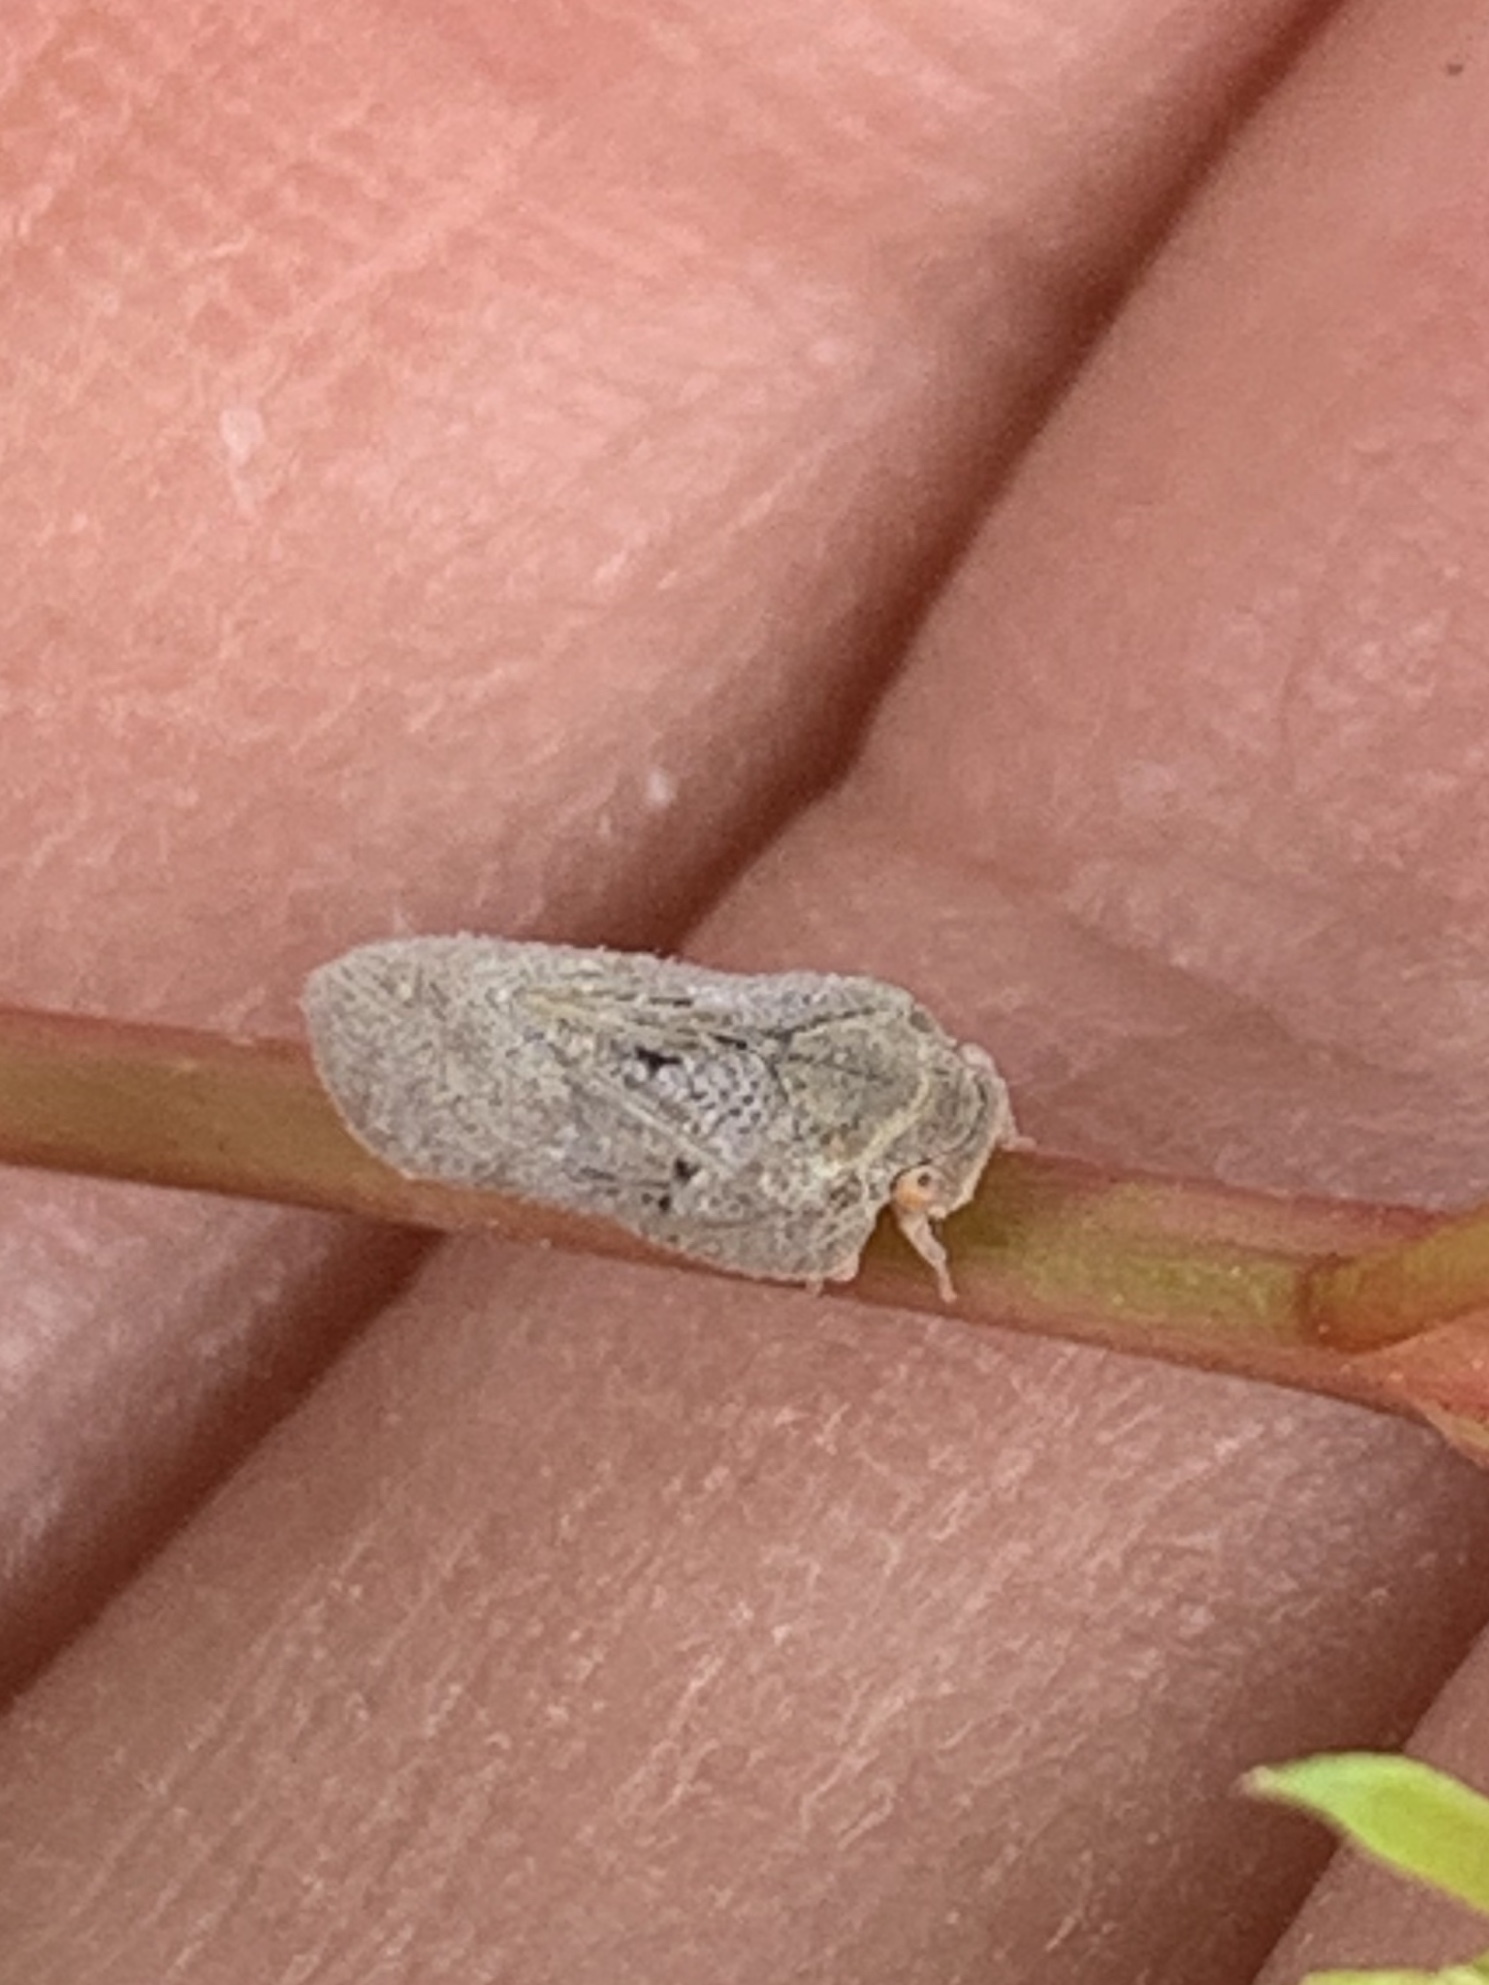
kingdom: Animalia
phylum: Arthropoda
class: Insecta
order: Hemiptera
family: Flatidae
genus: Melormenis
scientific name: Melormenis basalis
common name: Puerto rican planthopper
